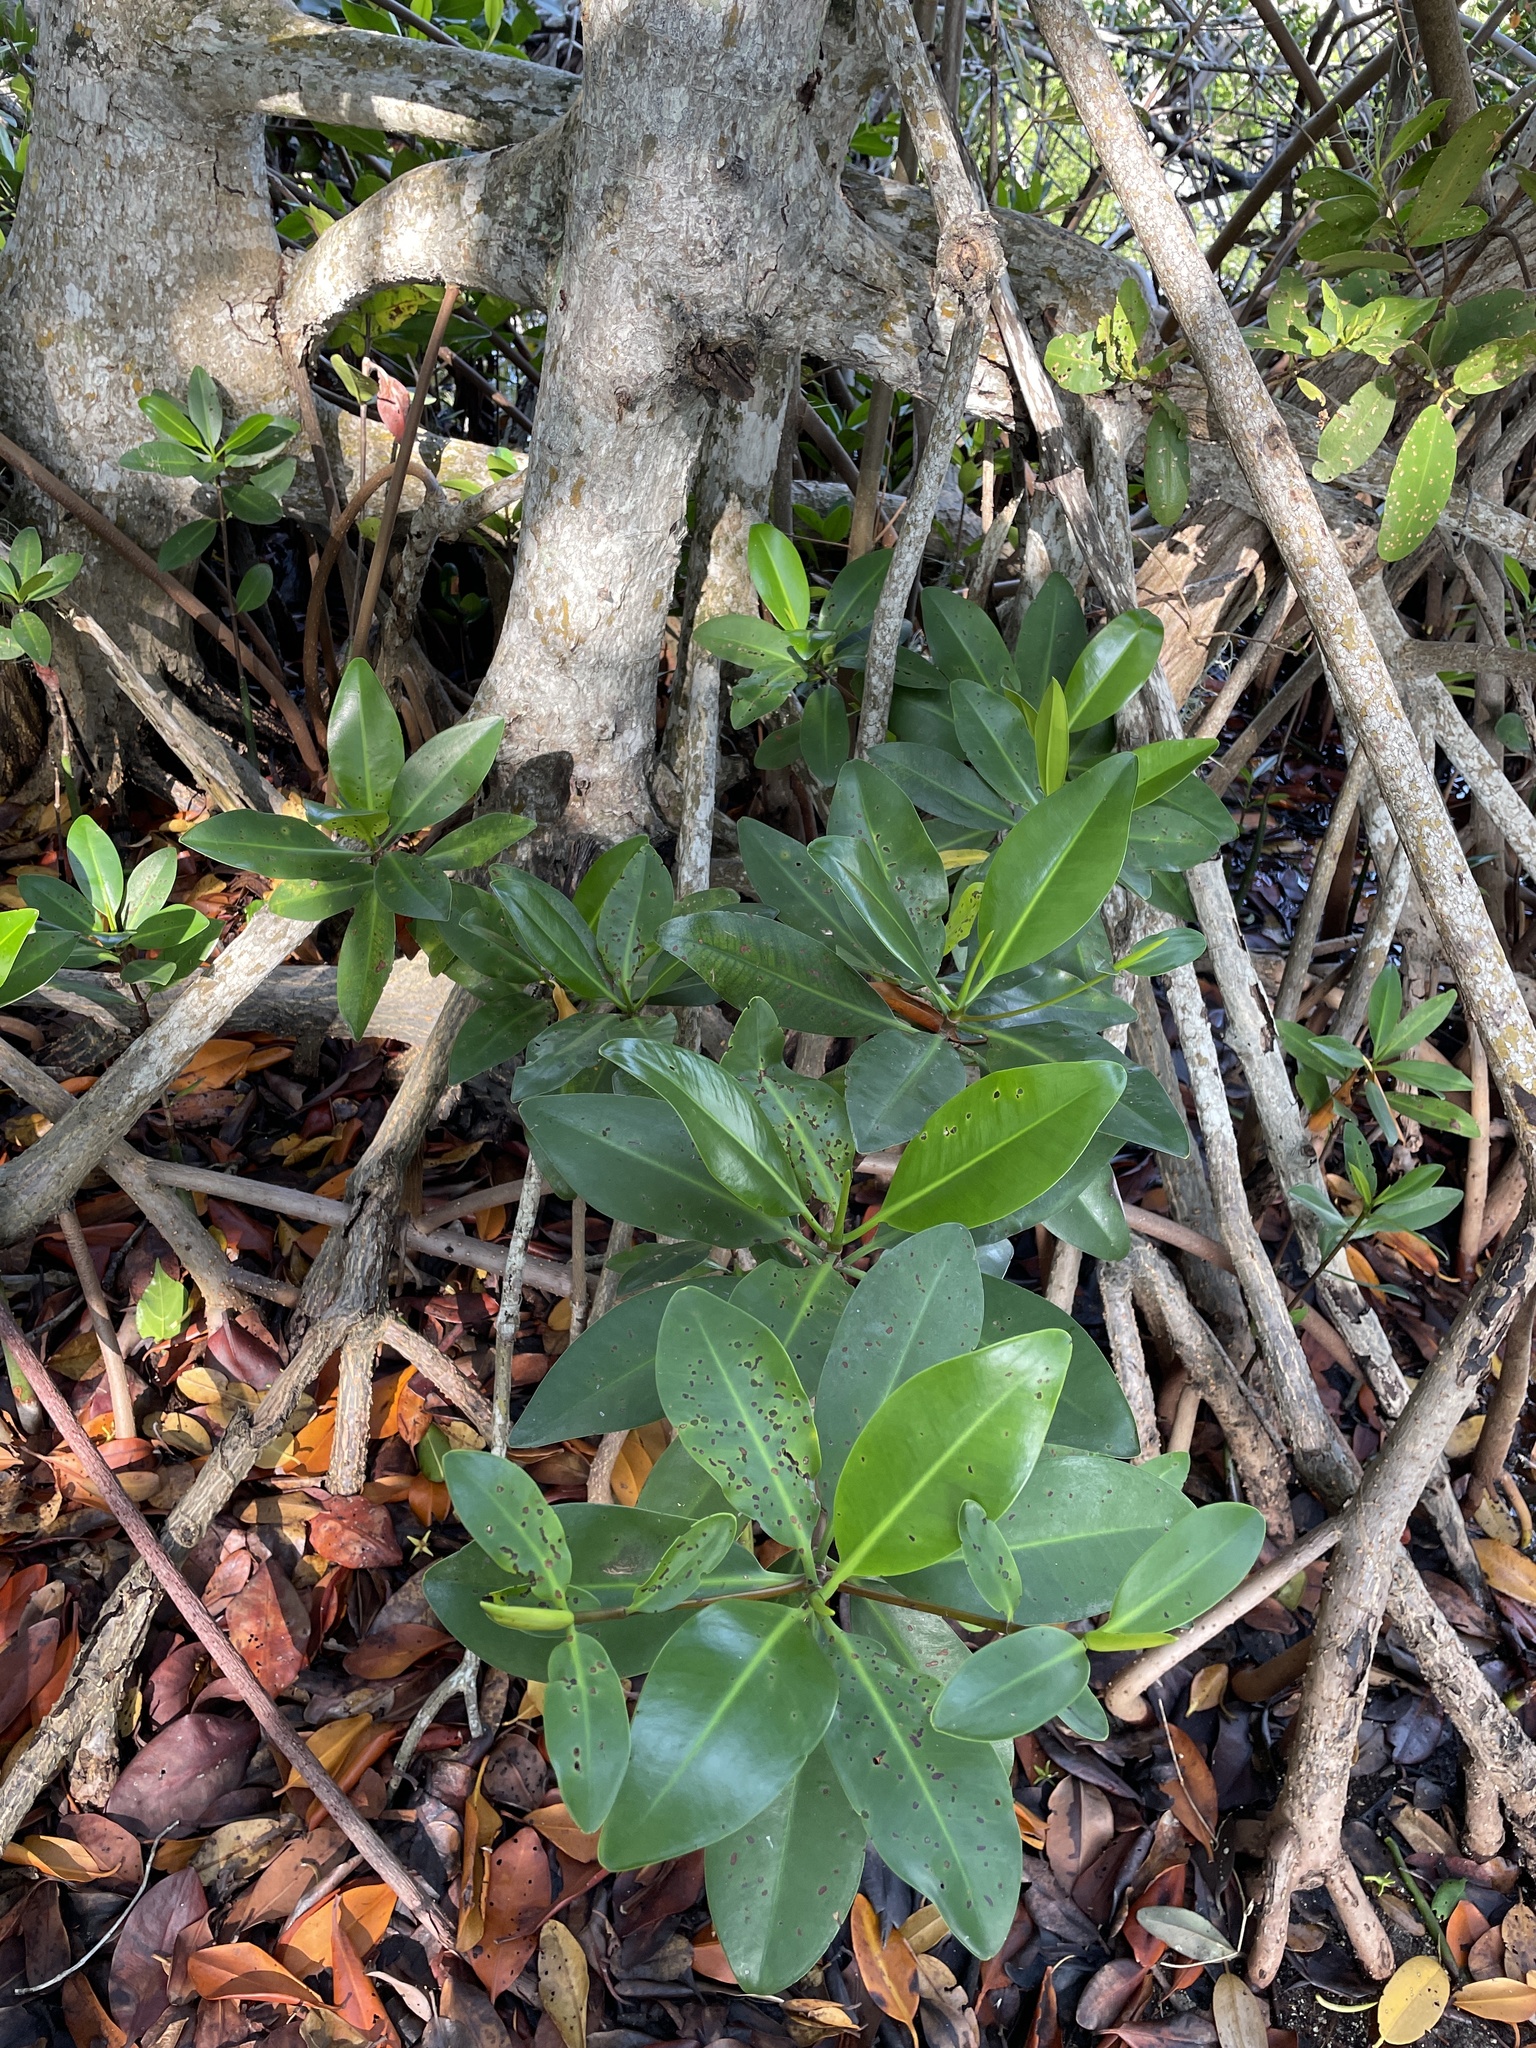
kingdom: Plantae
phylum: Tracheophyta
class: Magnoliopsida
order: Malpighiales
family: Rhizophoraceae
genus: Rhizophora
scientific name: Rhizophora mangle
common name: Red mangrove
